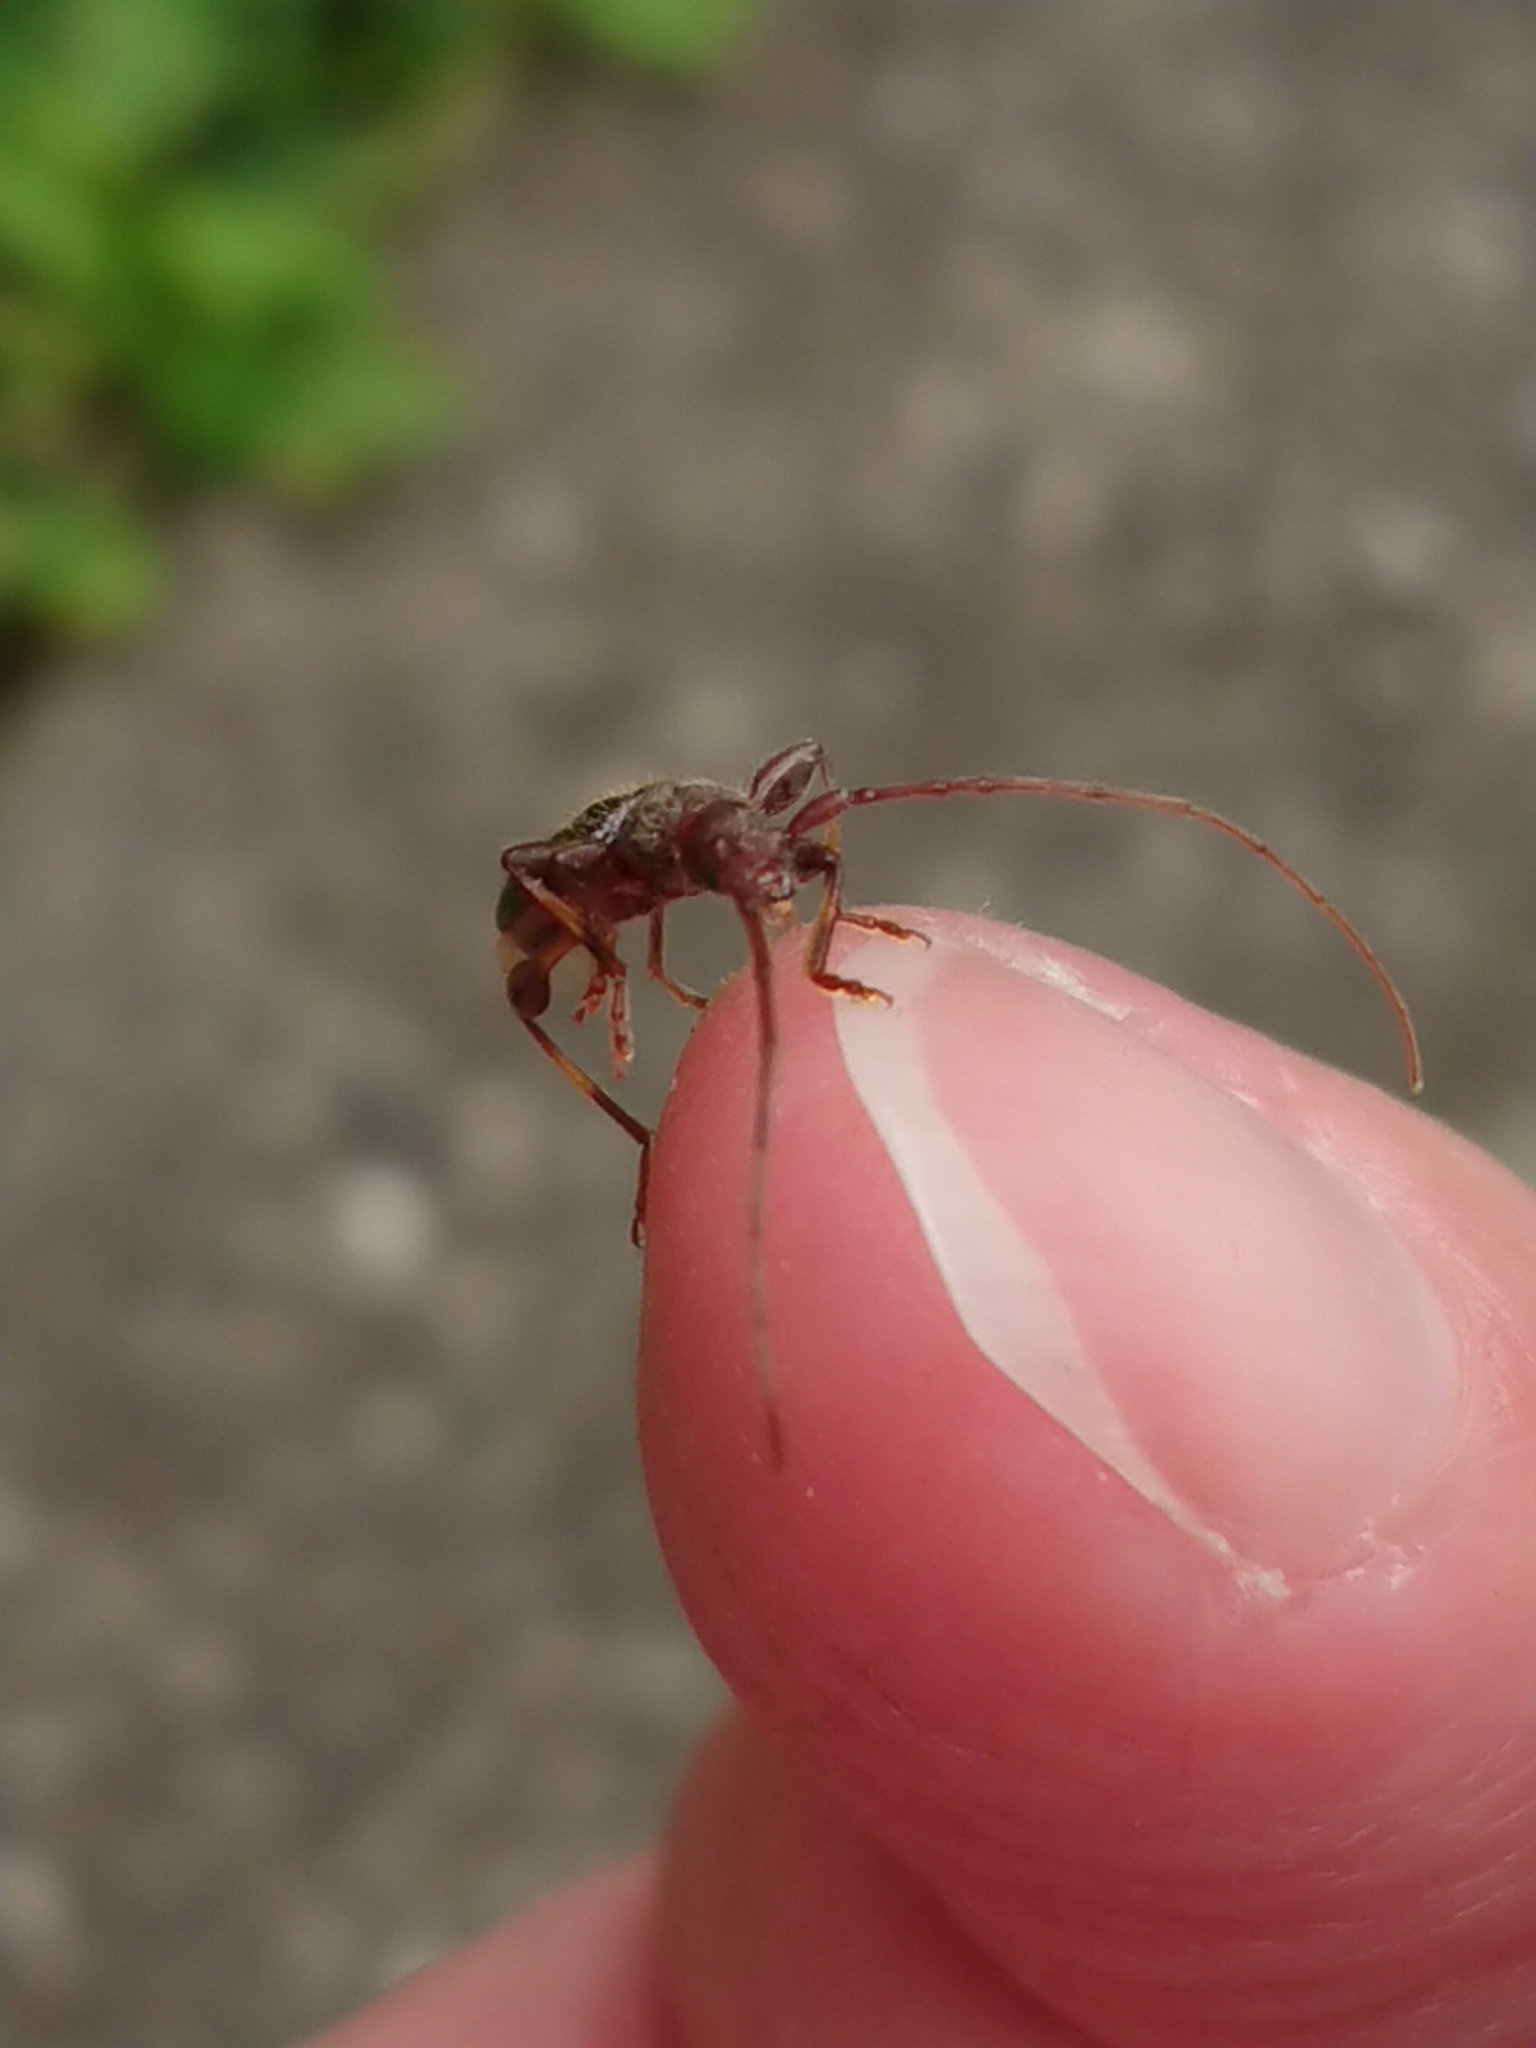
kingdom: Animalia
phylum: Arthropoda
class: Insecta
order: Coleoptera
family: Cerambycidae
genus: Bethelium
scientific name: Bethelium signiferum
